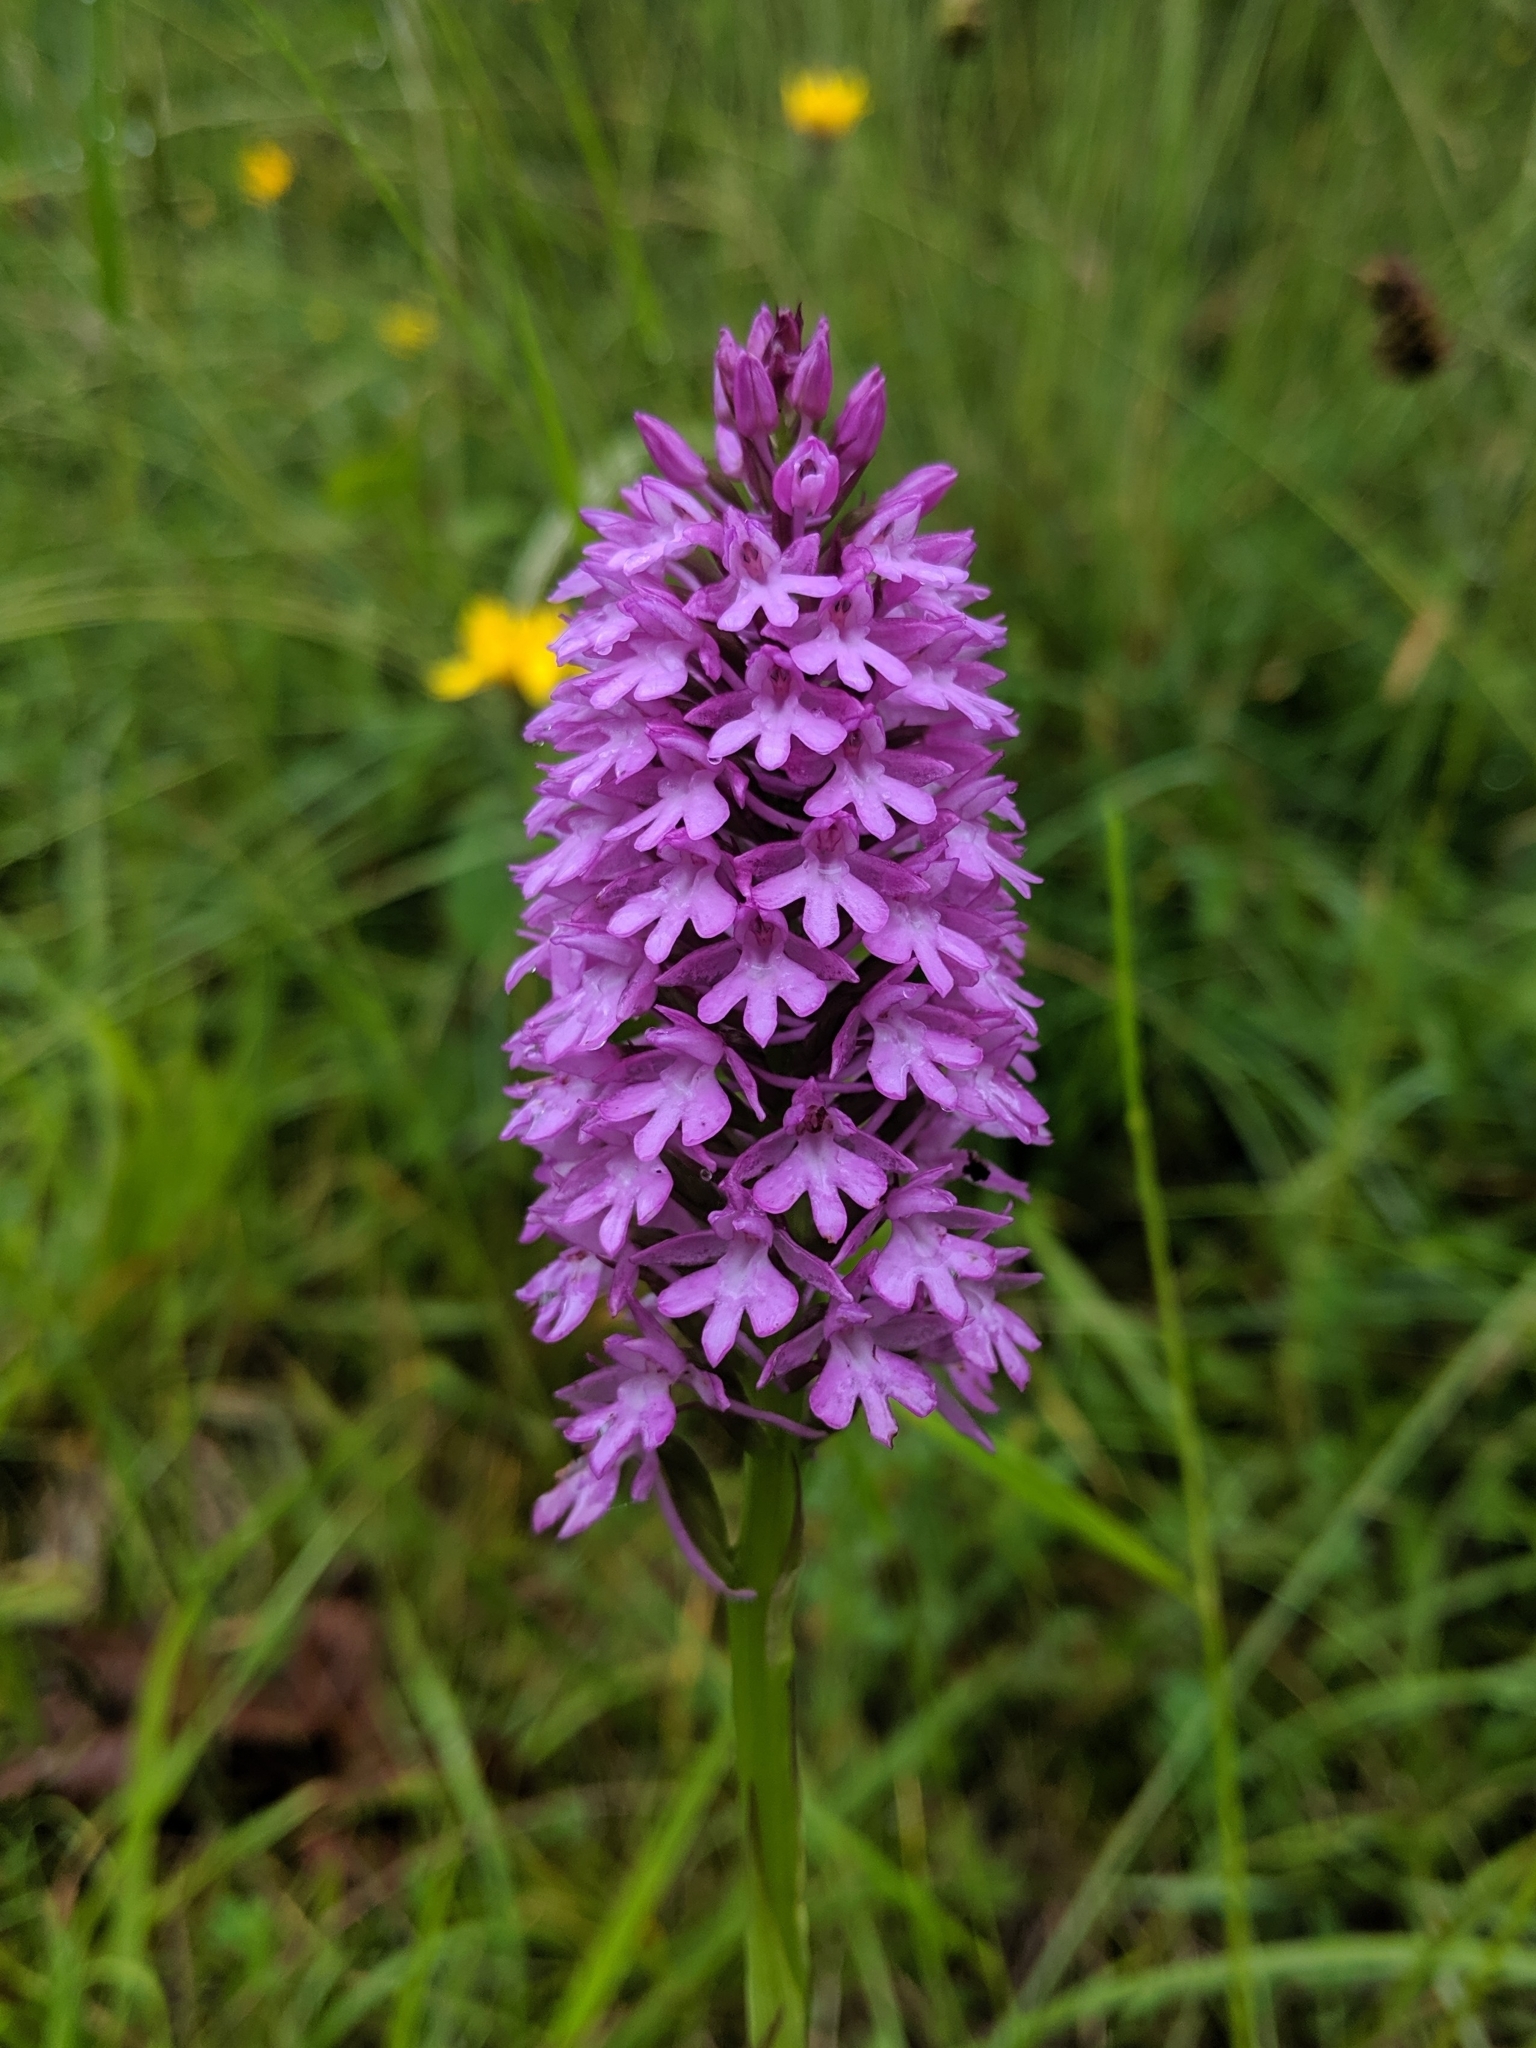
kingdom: Plantae
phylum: Tracheophyta
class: Liliopsida
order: Asparagales
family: Orchidaceae
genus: Anacamptis
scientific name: Anacamptis pyramidalis
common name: Pyramidal orchid
